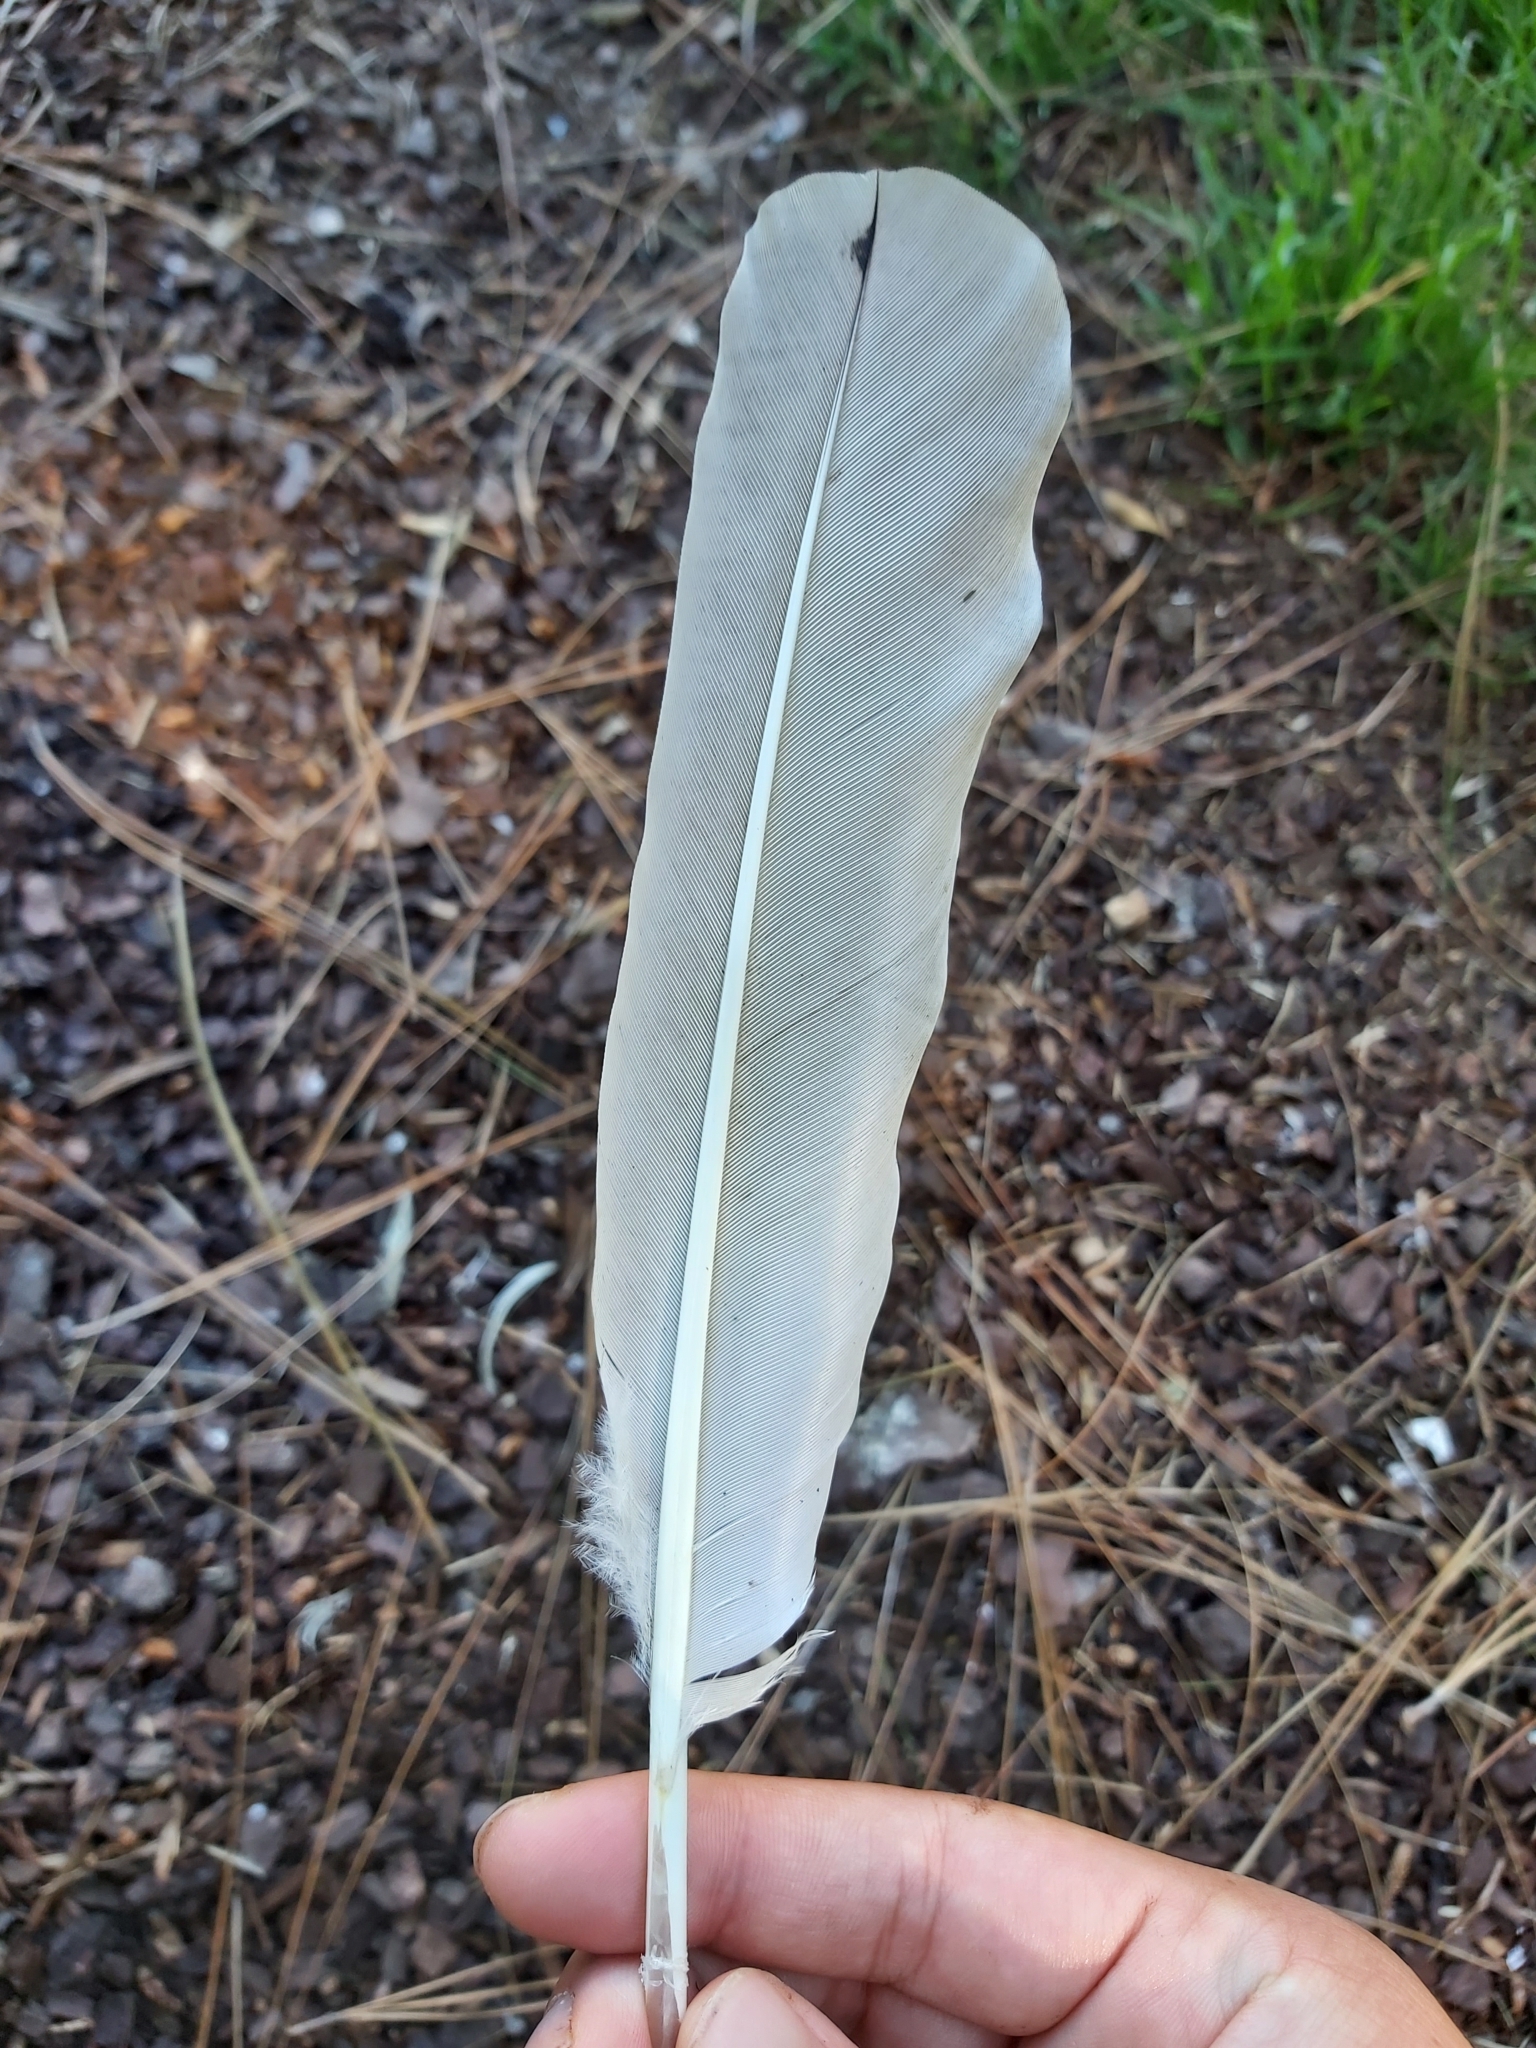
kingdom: Animalia
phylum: Chordata
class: Aves
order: Pelecaniformes
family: Threskiornithidae
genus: Threskiornis
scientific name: Threskiornis molucca
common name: Australian white ibis
